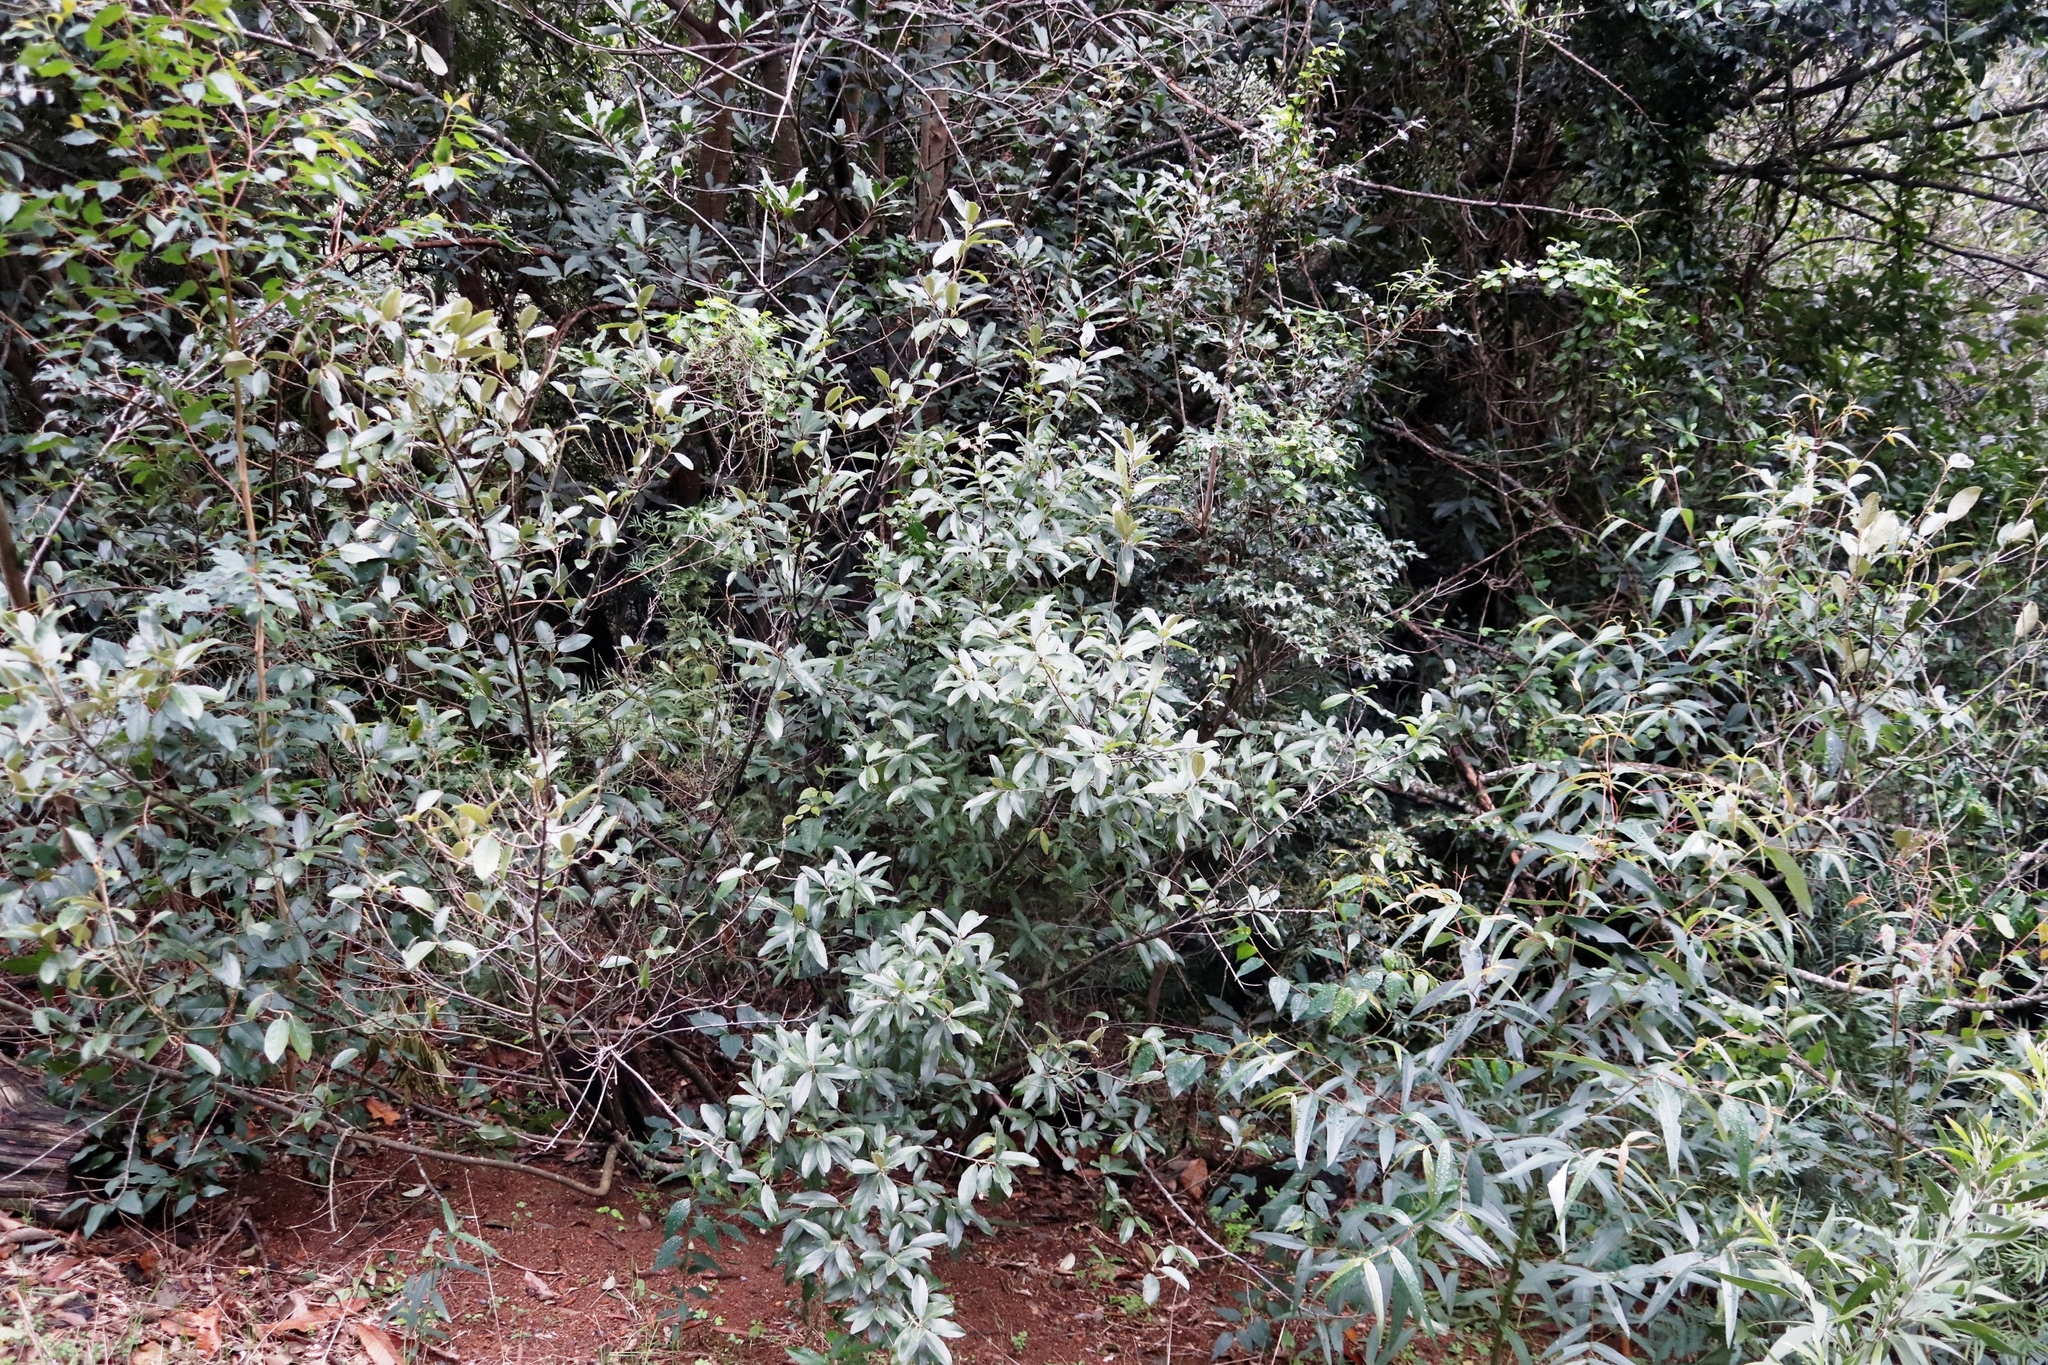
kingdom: Plantae
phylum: Tracheophyta
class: Magnoliopsida
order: Malpighiales
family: Achariaceae
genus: Kiggelaria
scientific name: Kiggelaria africana
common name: Wild peach
